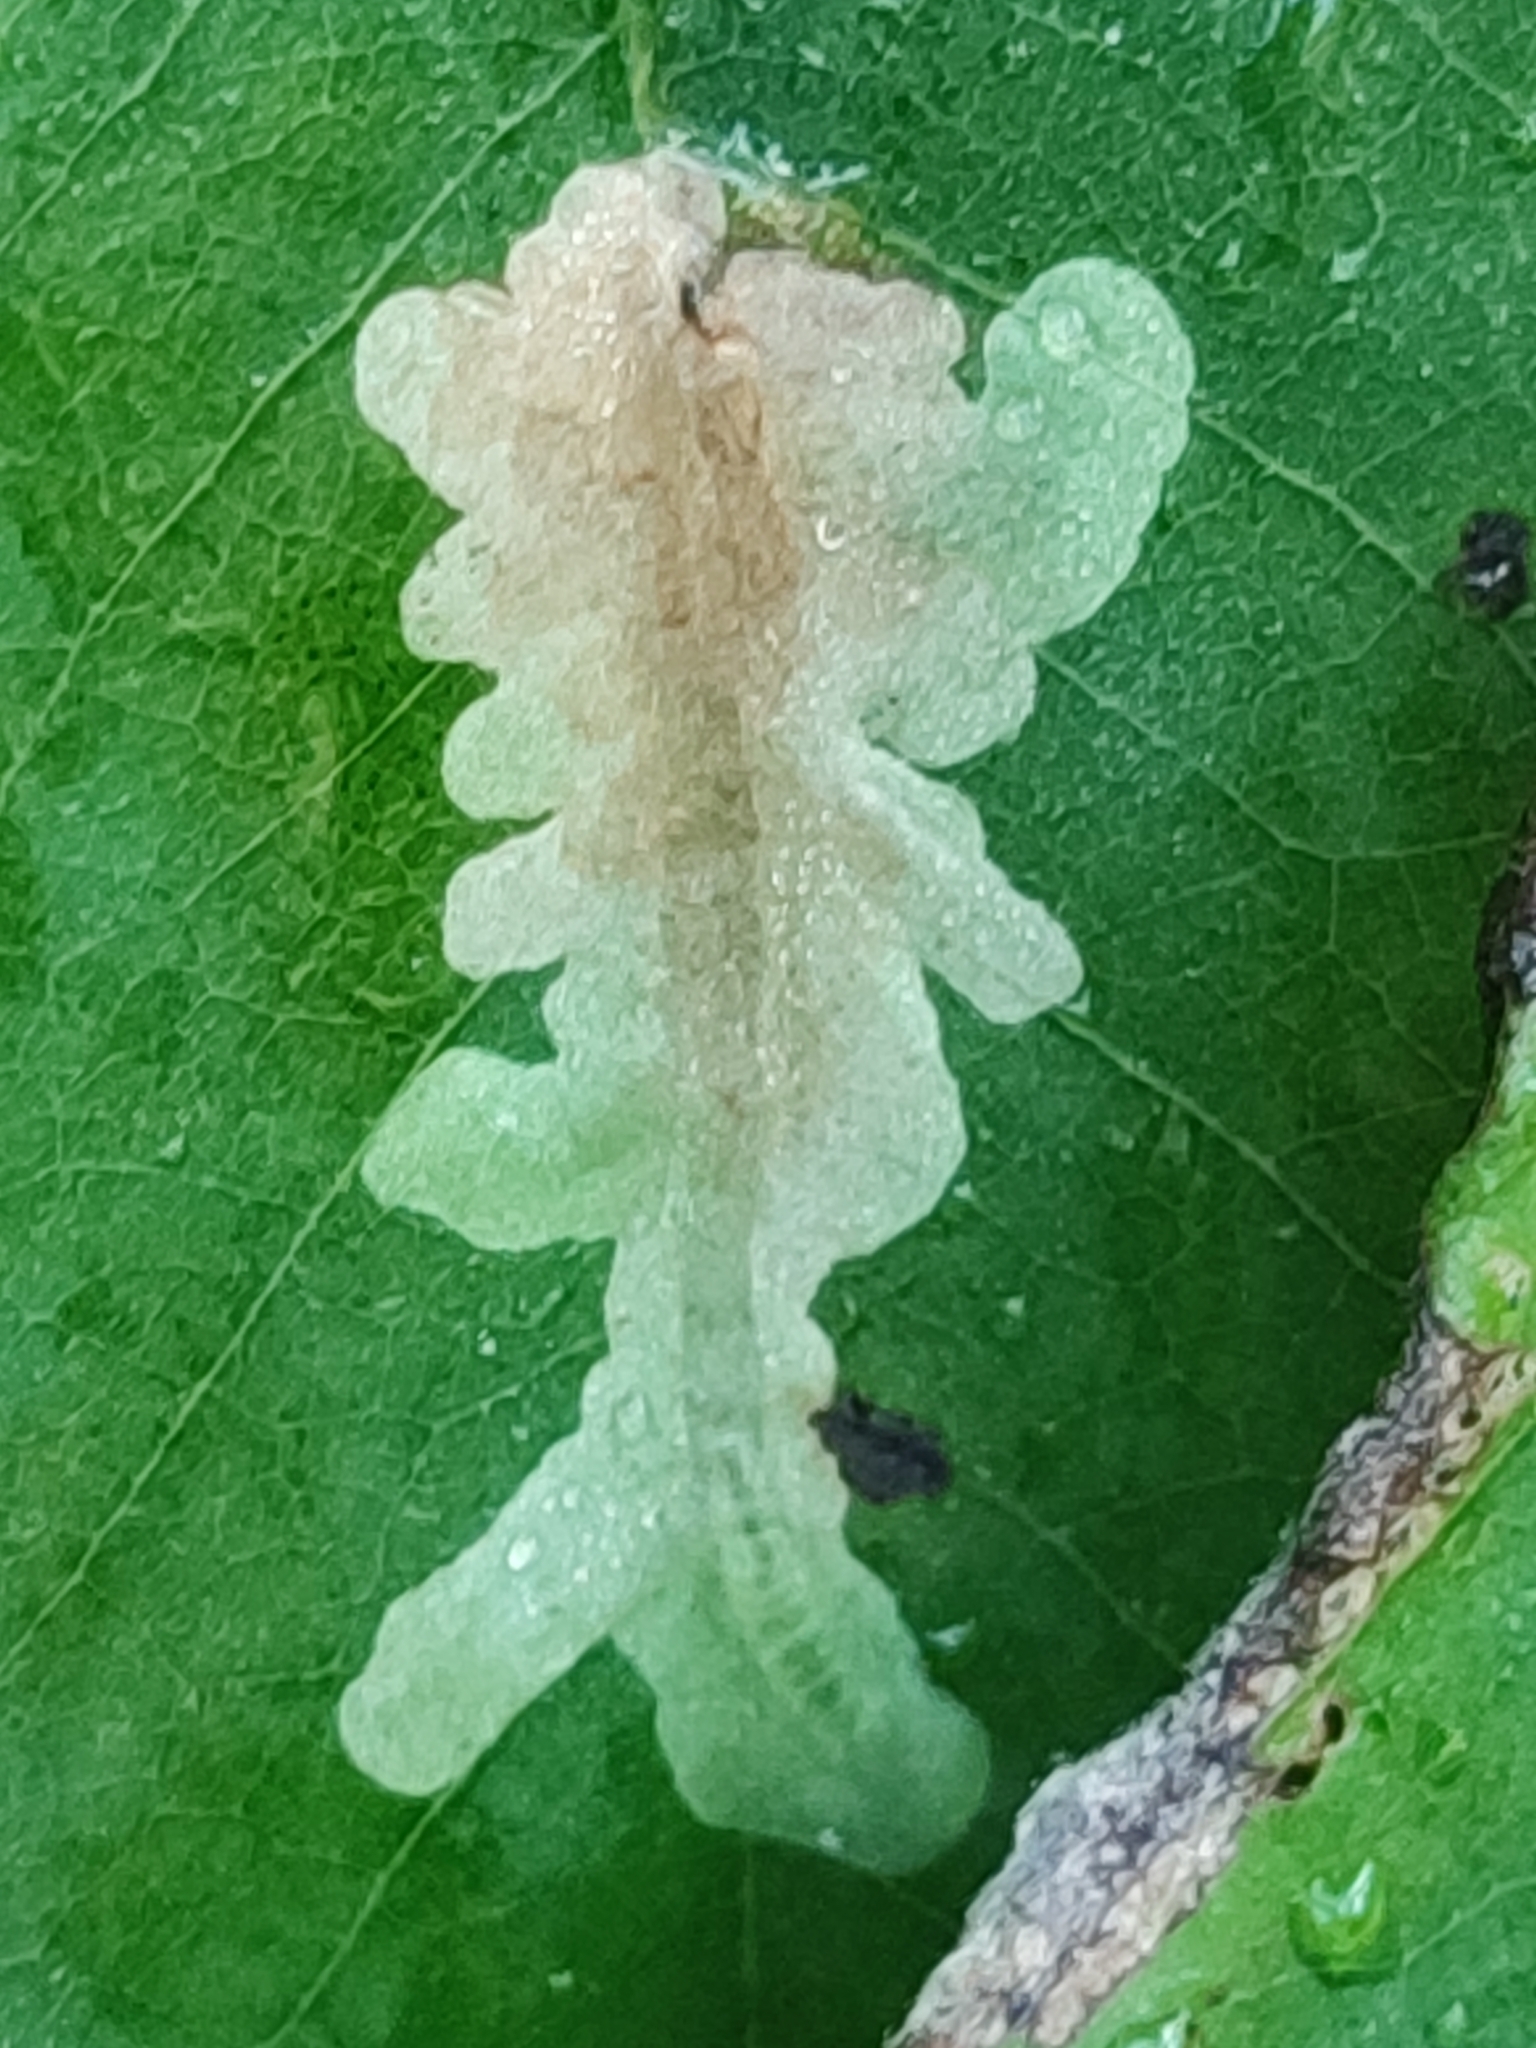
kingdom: Animalia
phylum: Arthropoda
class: Insecta
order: Lepidoptera
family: Gracillariidae
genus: Parectopa
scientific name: Parectopa robiniella
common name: Locust digitate leafminer
